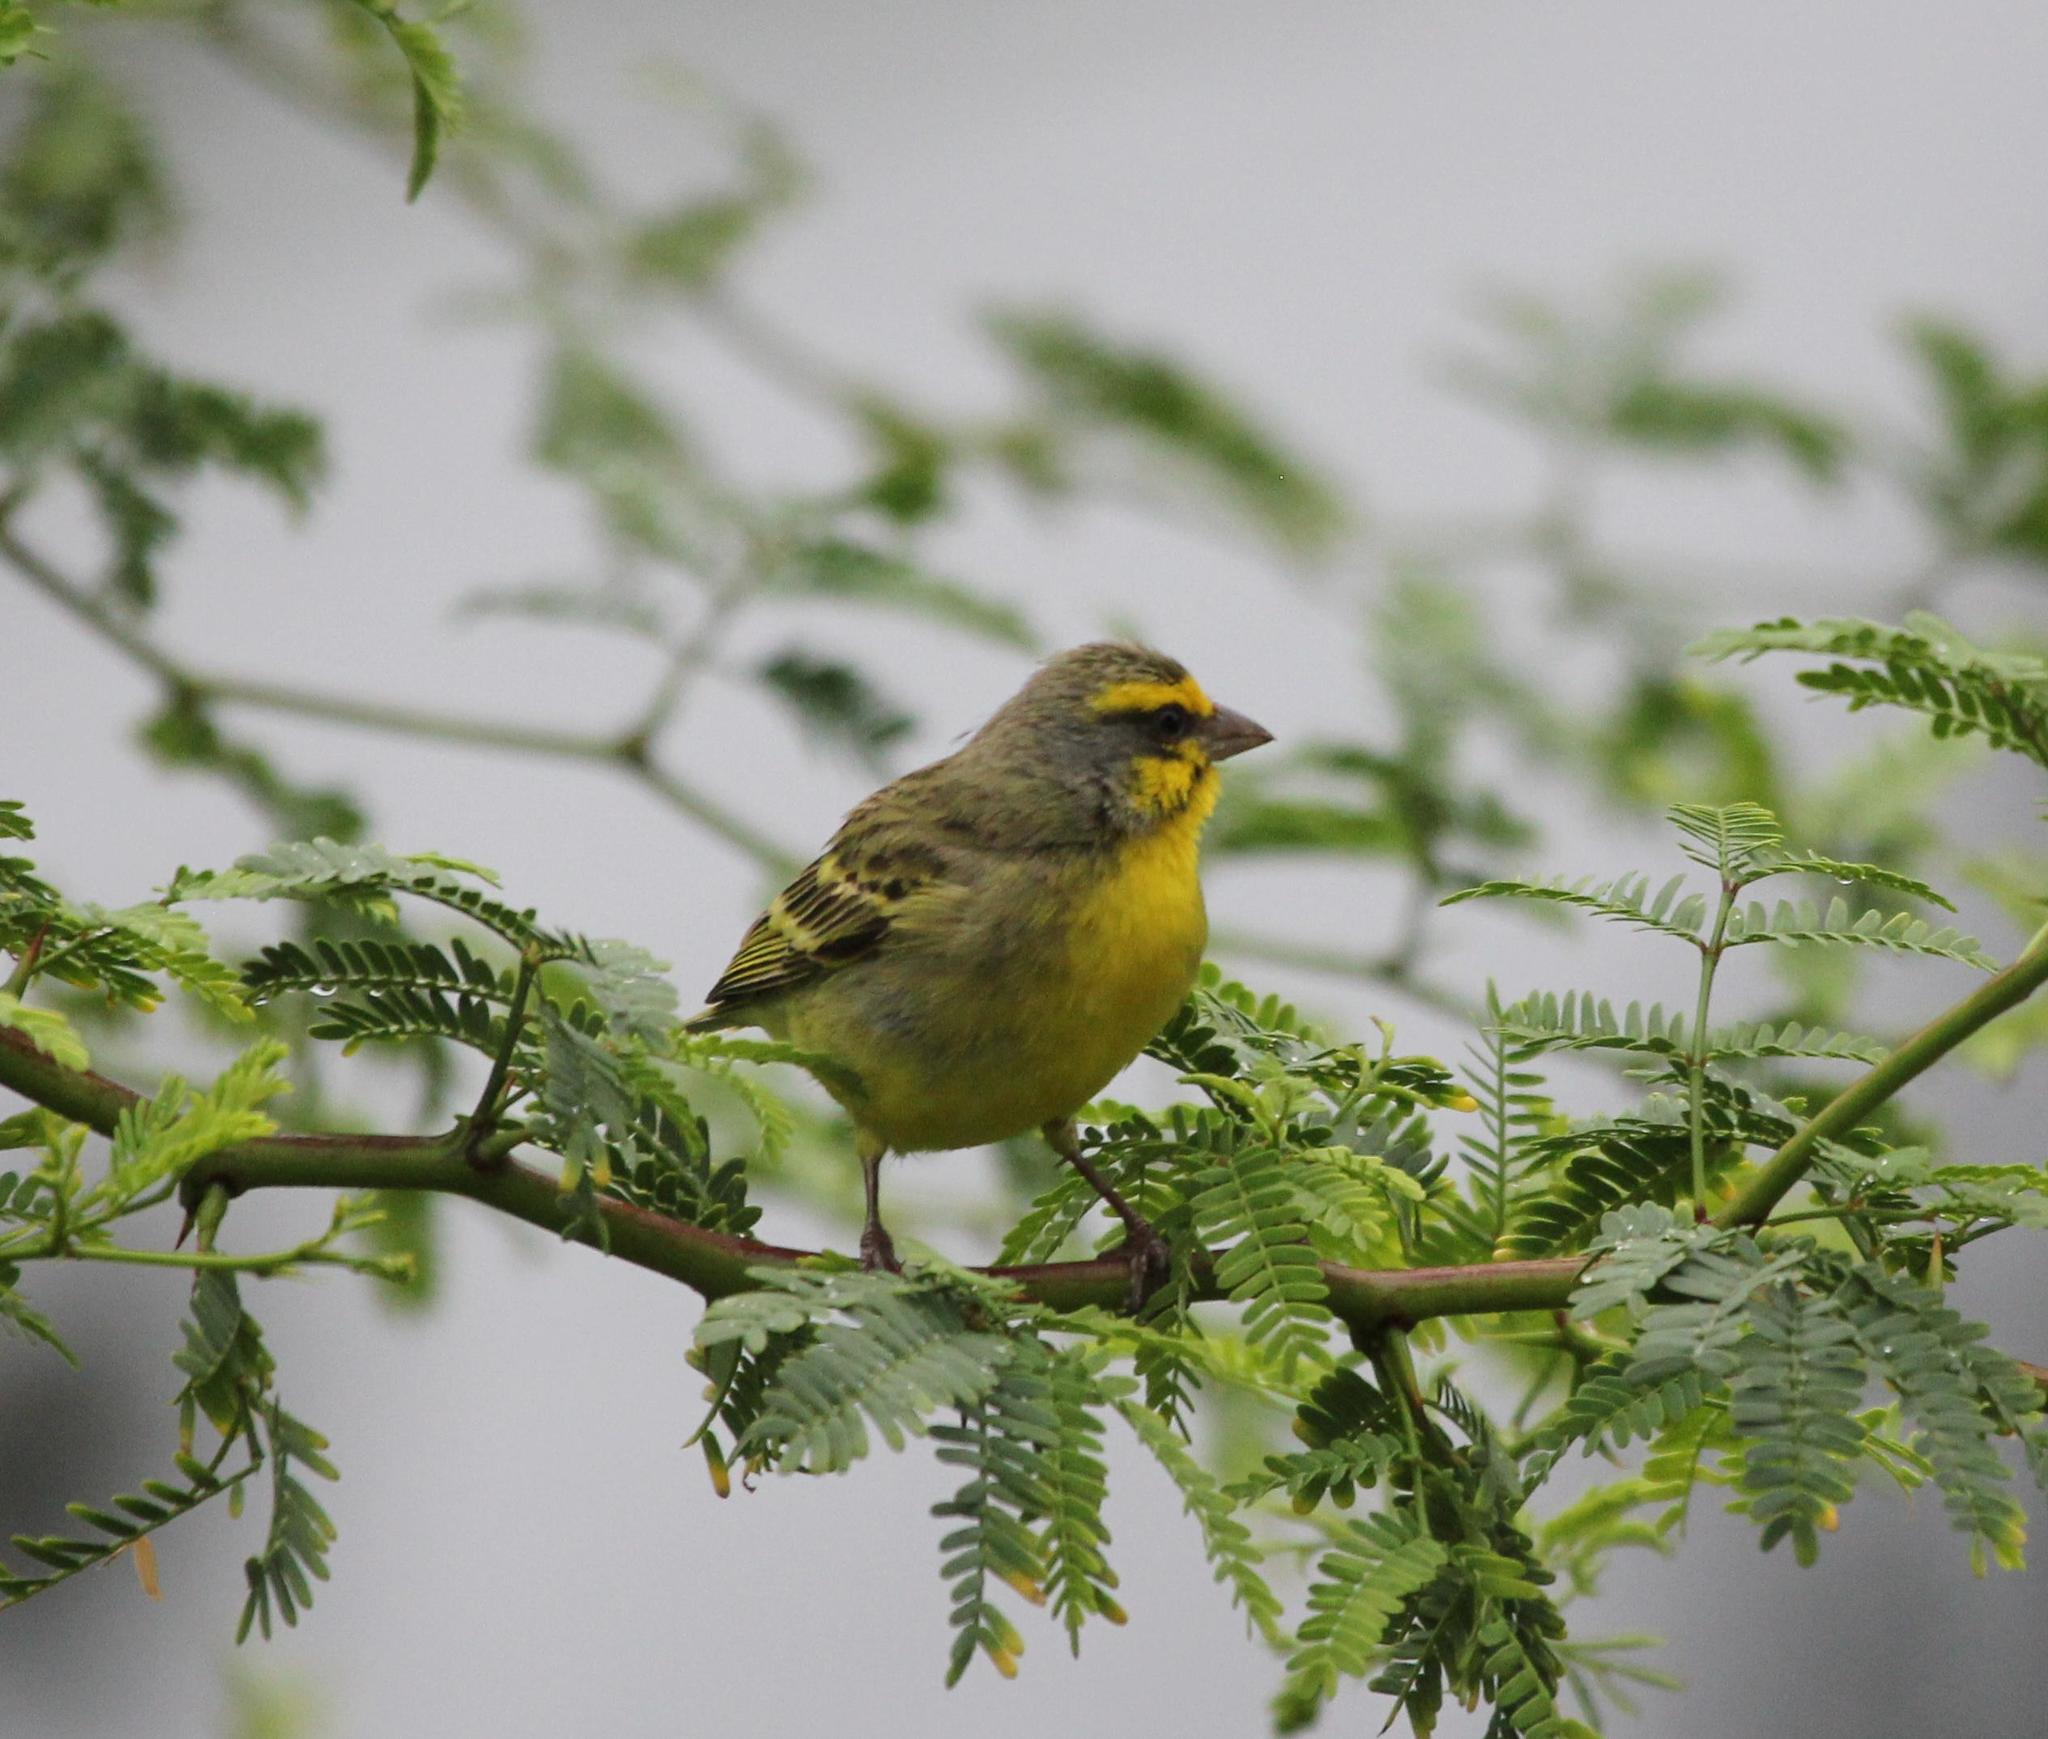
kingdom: Animalia
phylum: Chordata
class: Aves
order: Passeriformes
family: Fringillidae
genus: Crithagra
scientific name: Crithagra mozambica
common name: Yellow-fronted canary
